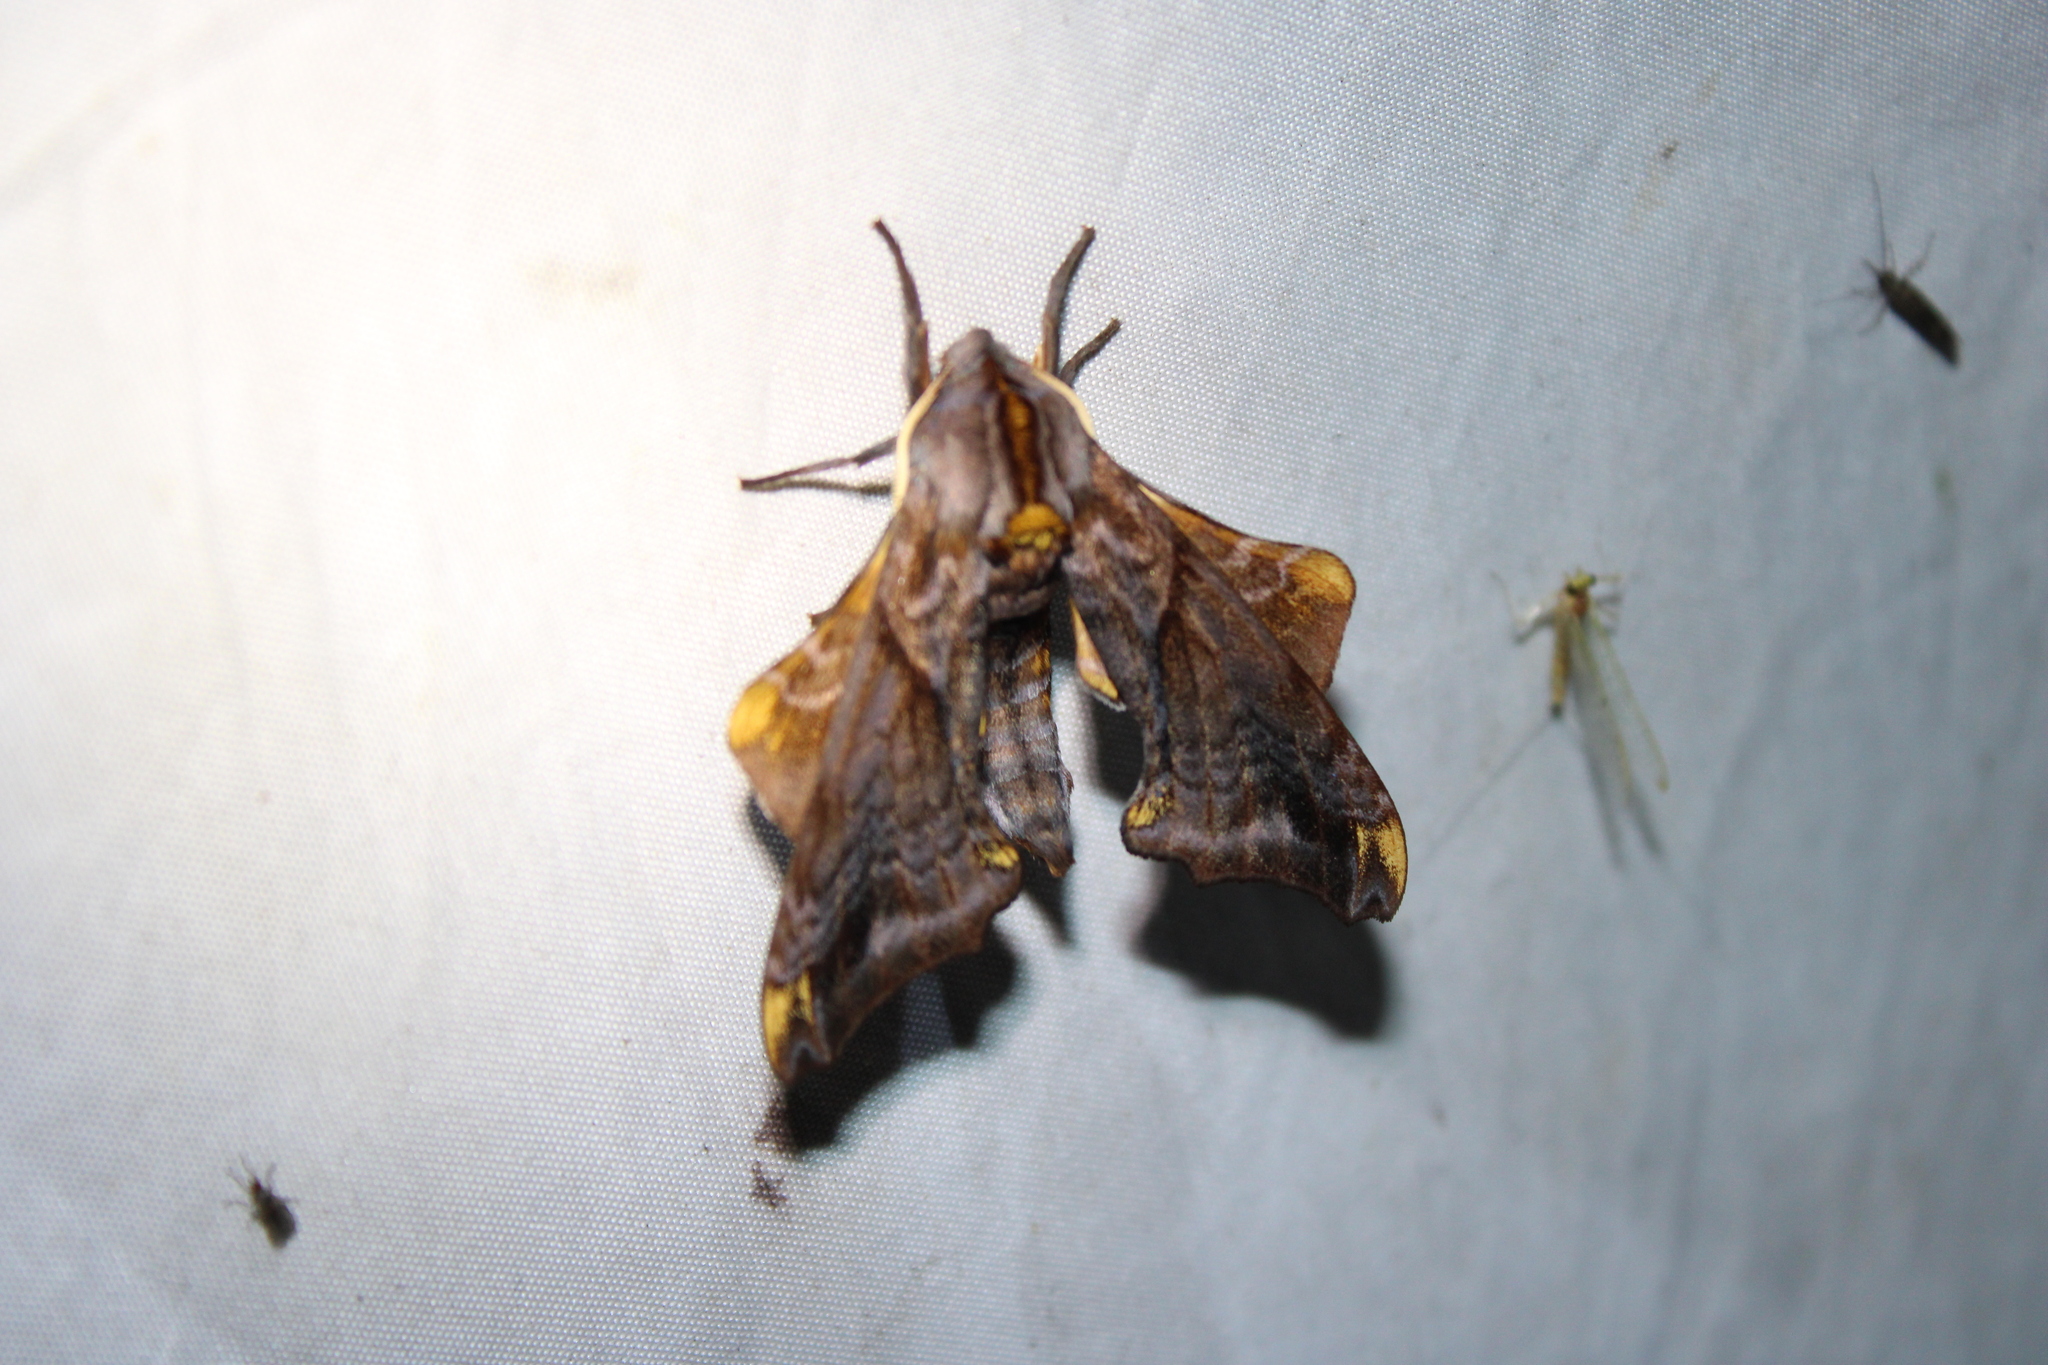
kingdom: Animalia
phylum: Arthropoda
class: Insecta
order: Lepidoptera
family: Sphingidae
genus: Paonias
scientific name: Paonias myops
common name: Small-eyed sphinx
